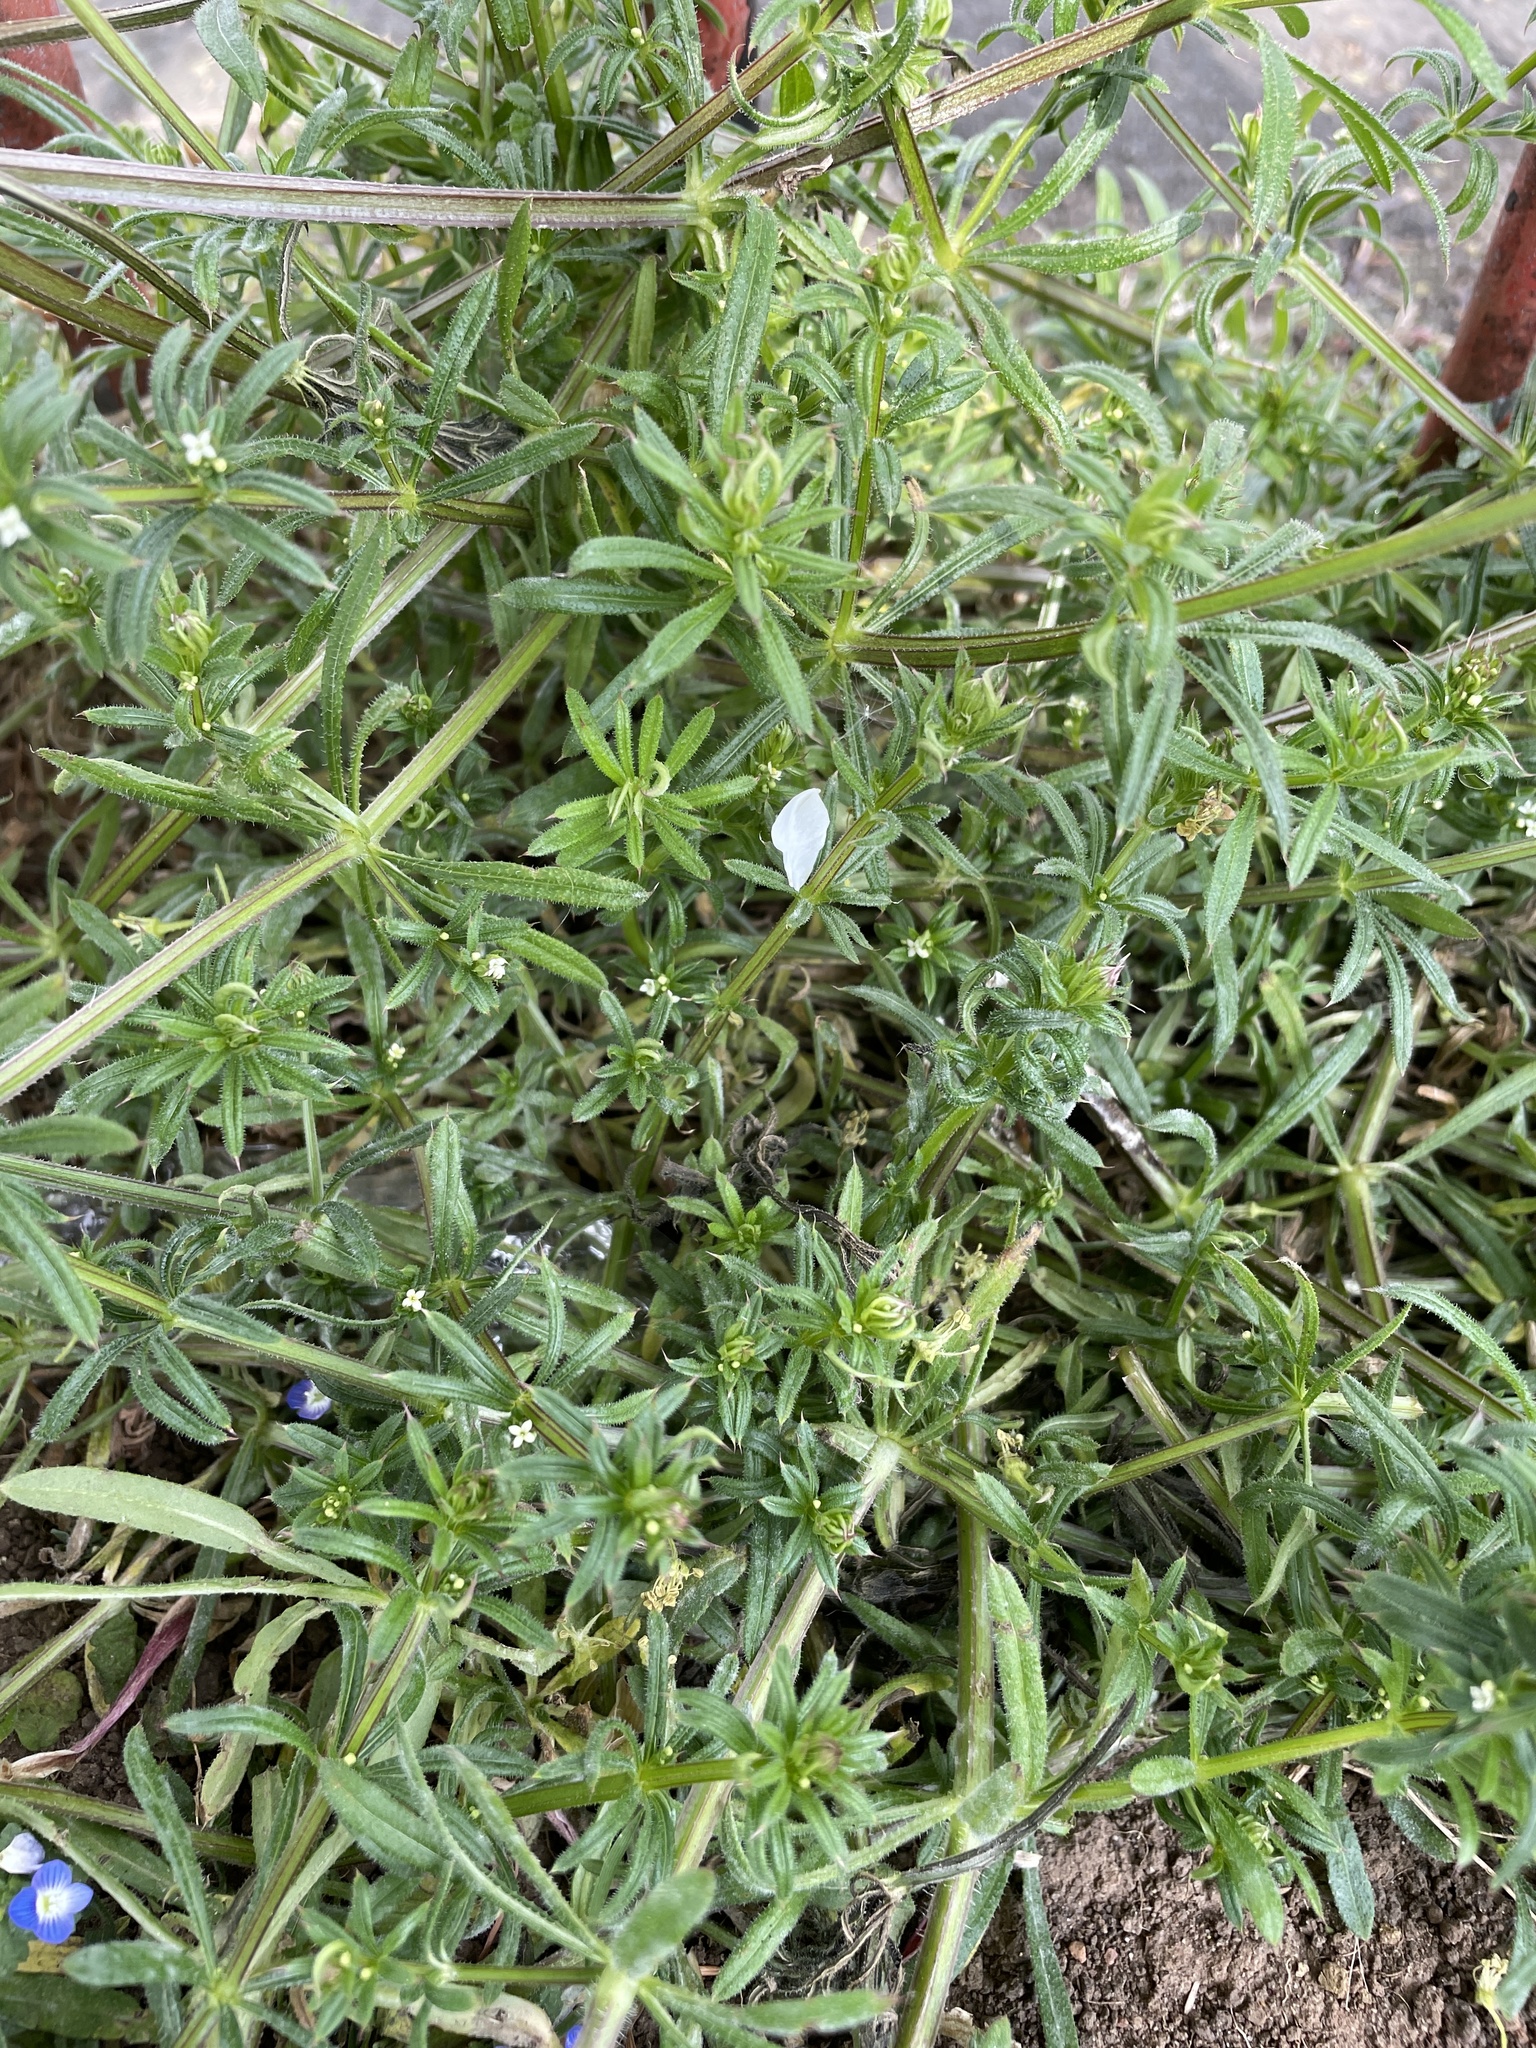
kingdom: Plantae
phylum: Tracheophyta
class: Magnoliopsida
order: Gentianales
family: Rubiaceae
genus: Galium
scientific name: Galium aparine
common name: Cleavers
